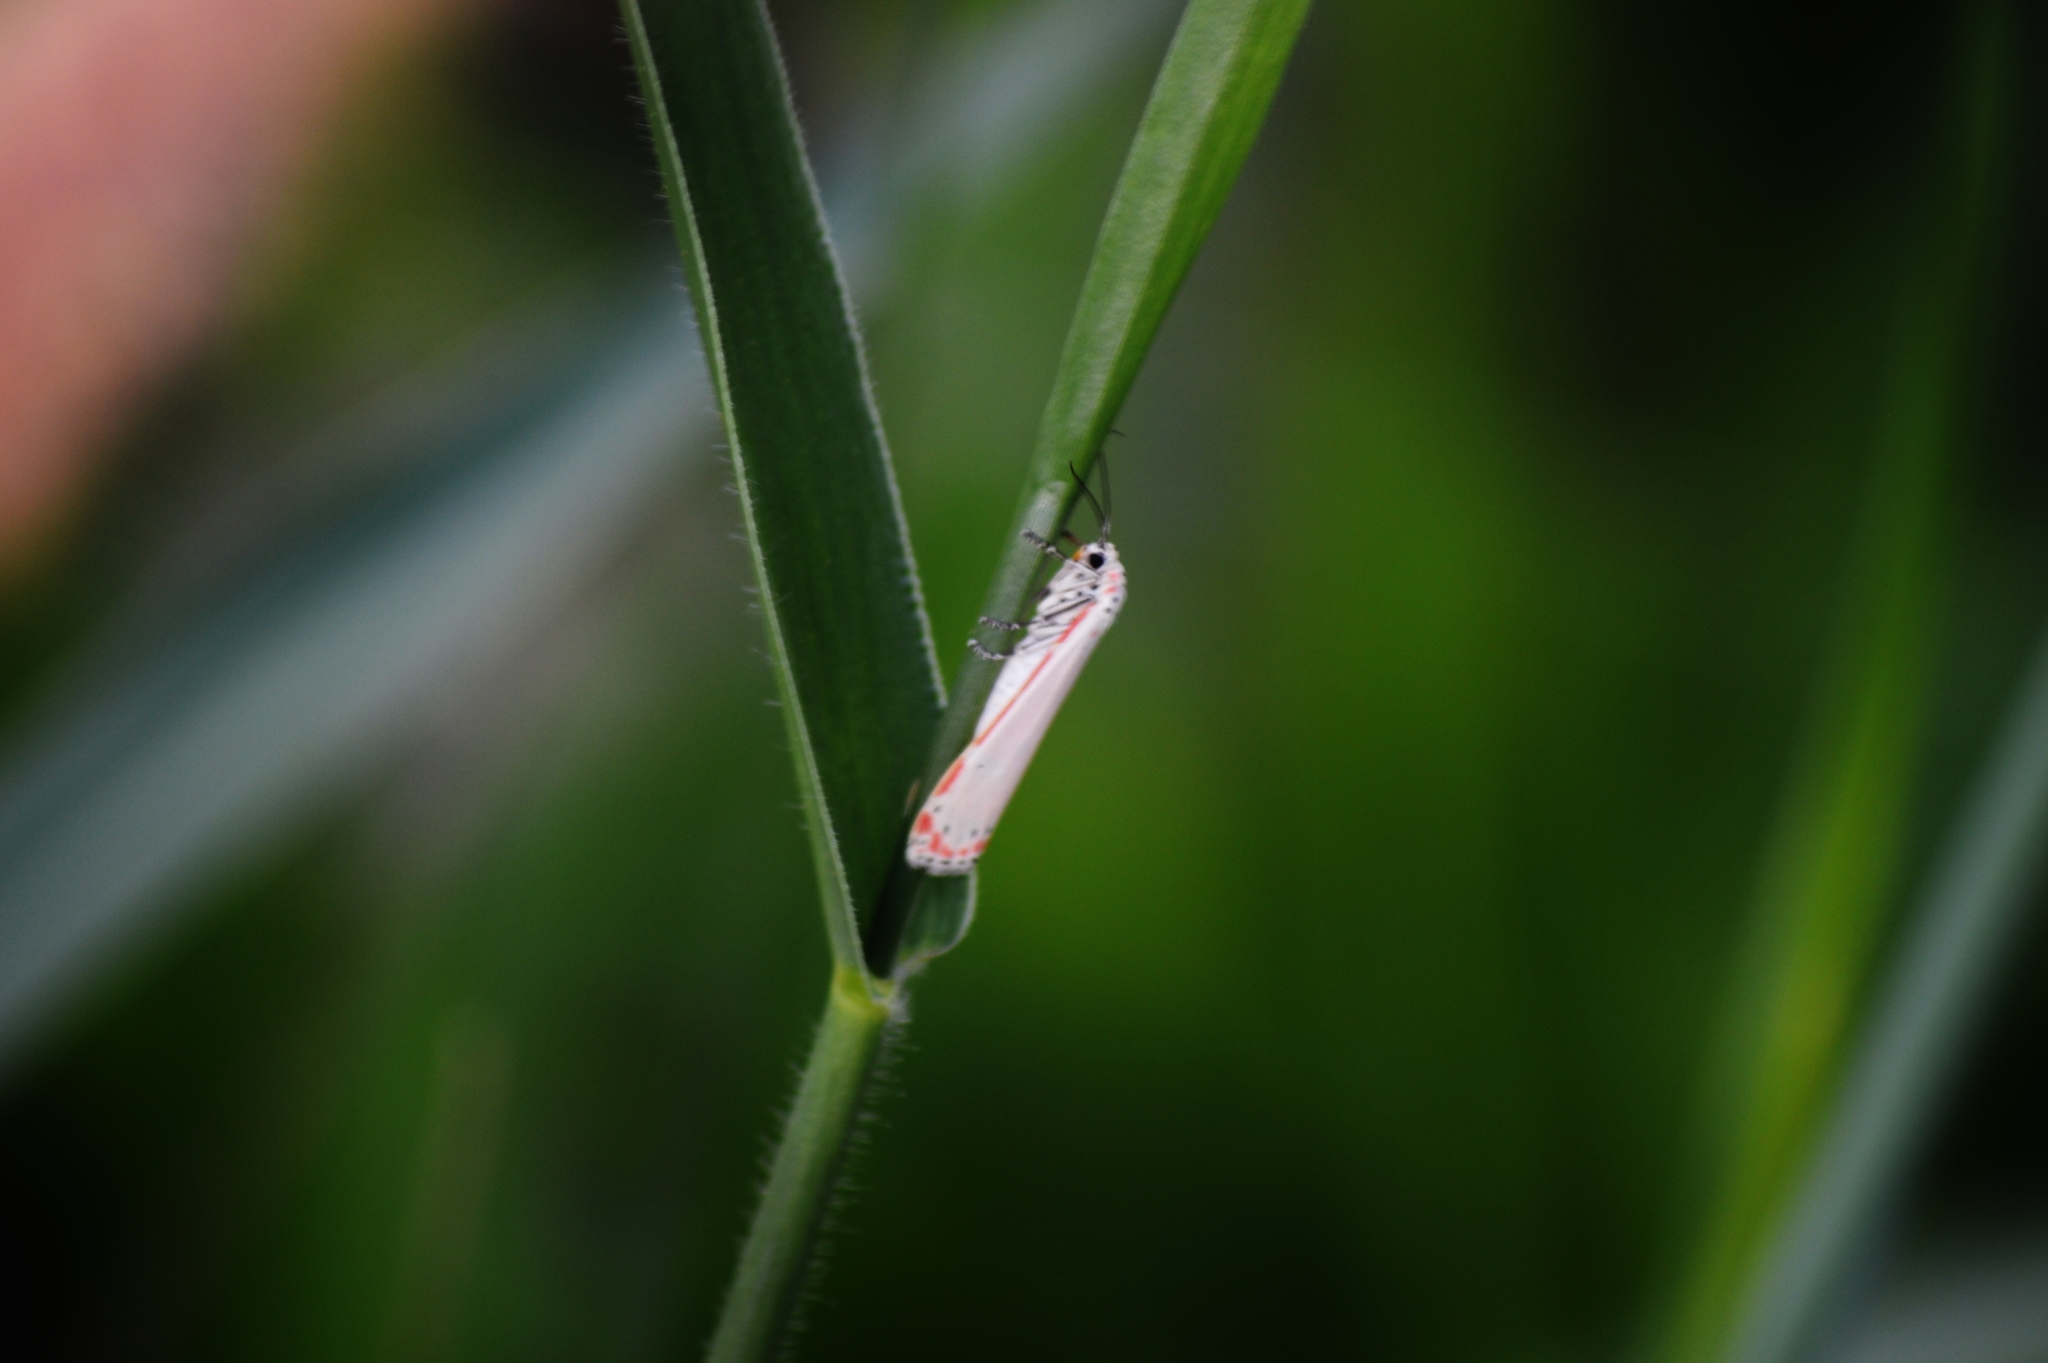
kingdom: Animalia
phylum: Arthropoda
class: Insecta
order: Lepidoptera
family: Erebidae
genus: Utetheisa
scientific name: Utetheisa ornatrix
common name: Beautiful utetheisa
